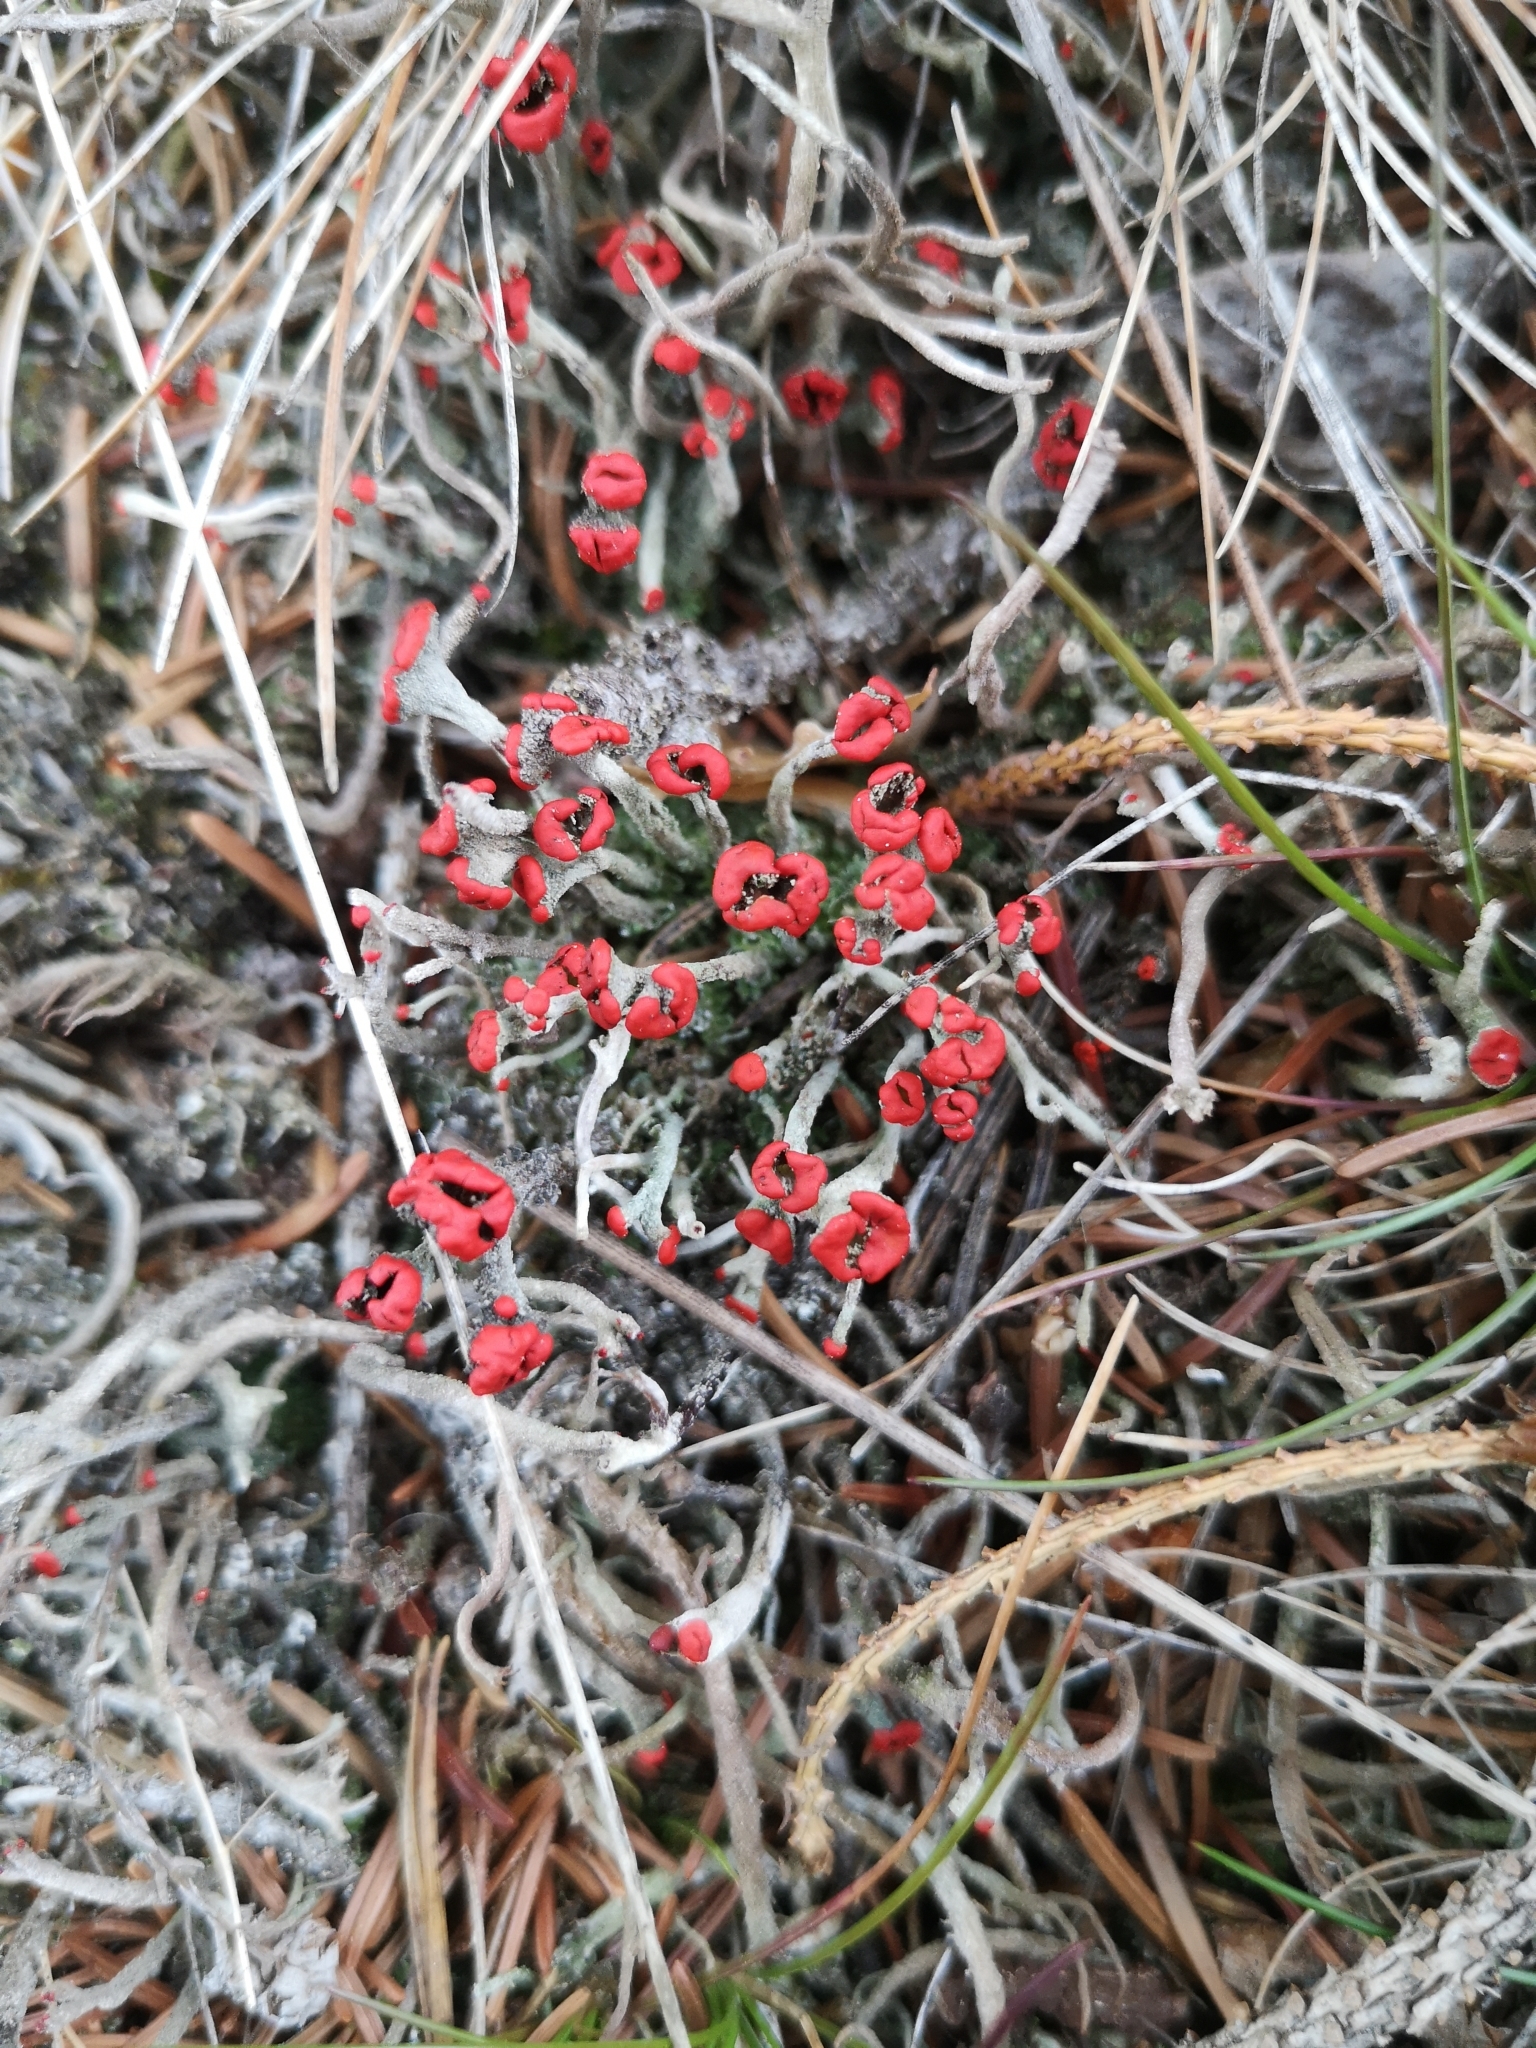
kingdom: Fungi
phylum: Ascomycota
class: Lecanoromycetes
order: Lecanorales
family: Cladoniaceae
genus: Cladonia
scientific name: Cladonia floerkeana
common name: Gritty british soldiers lichen
